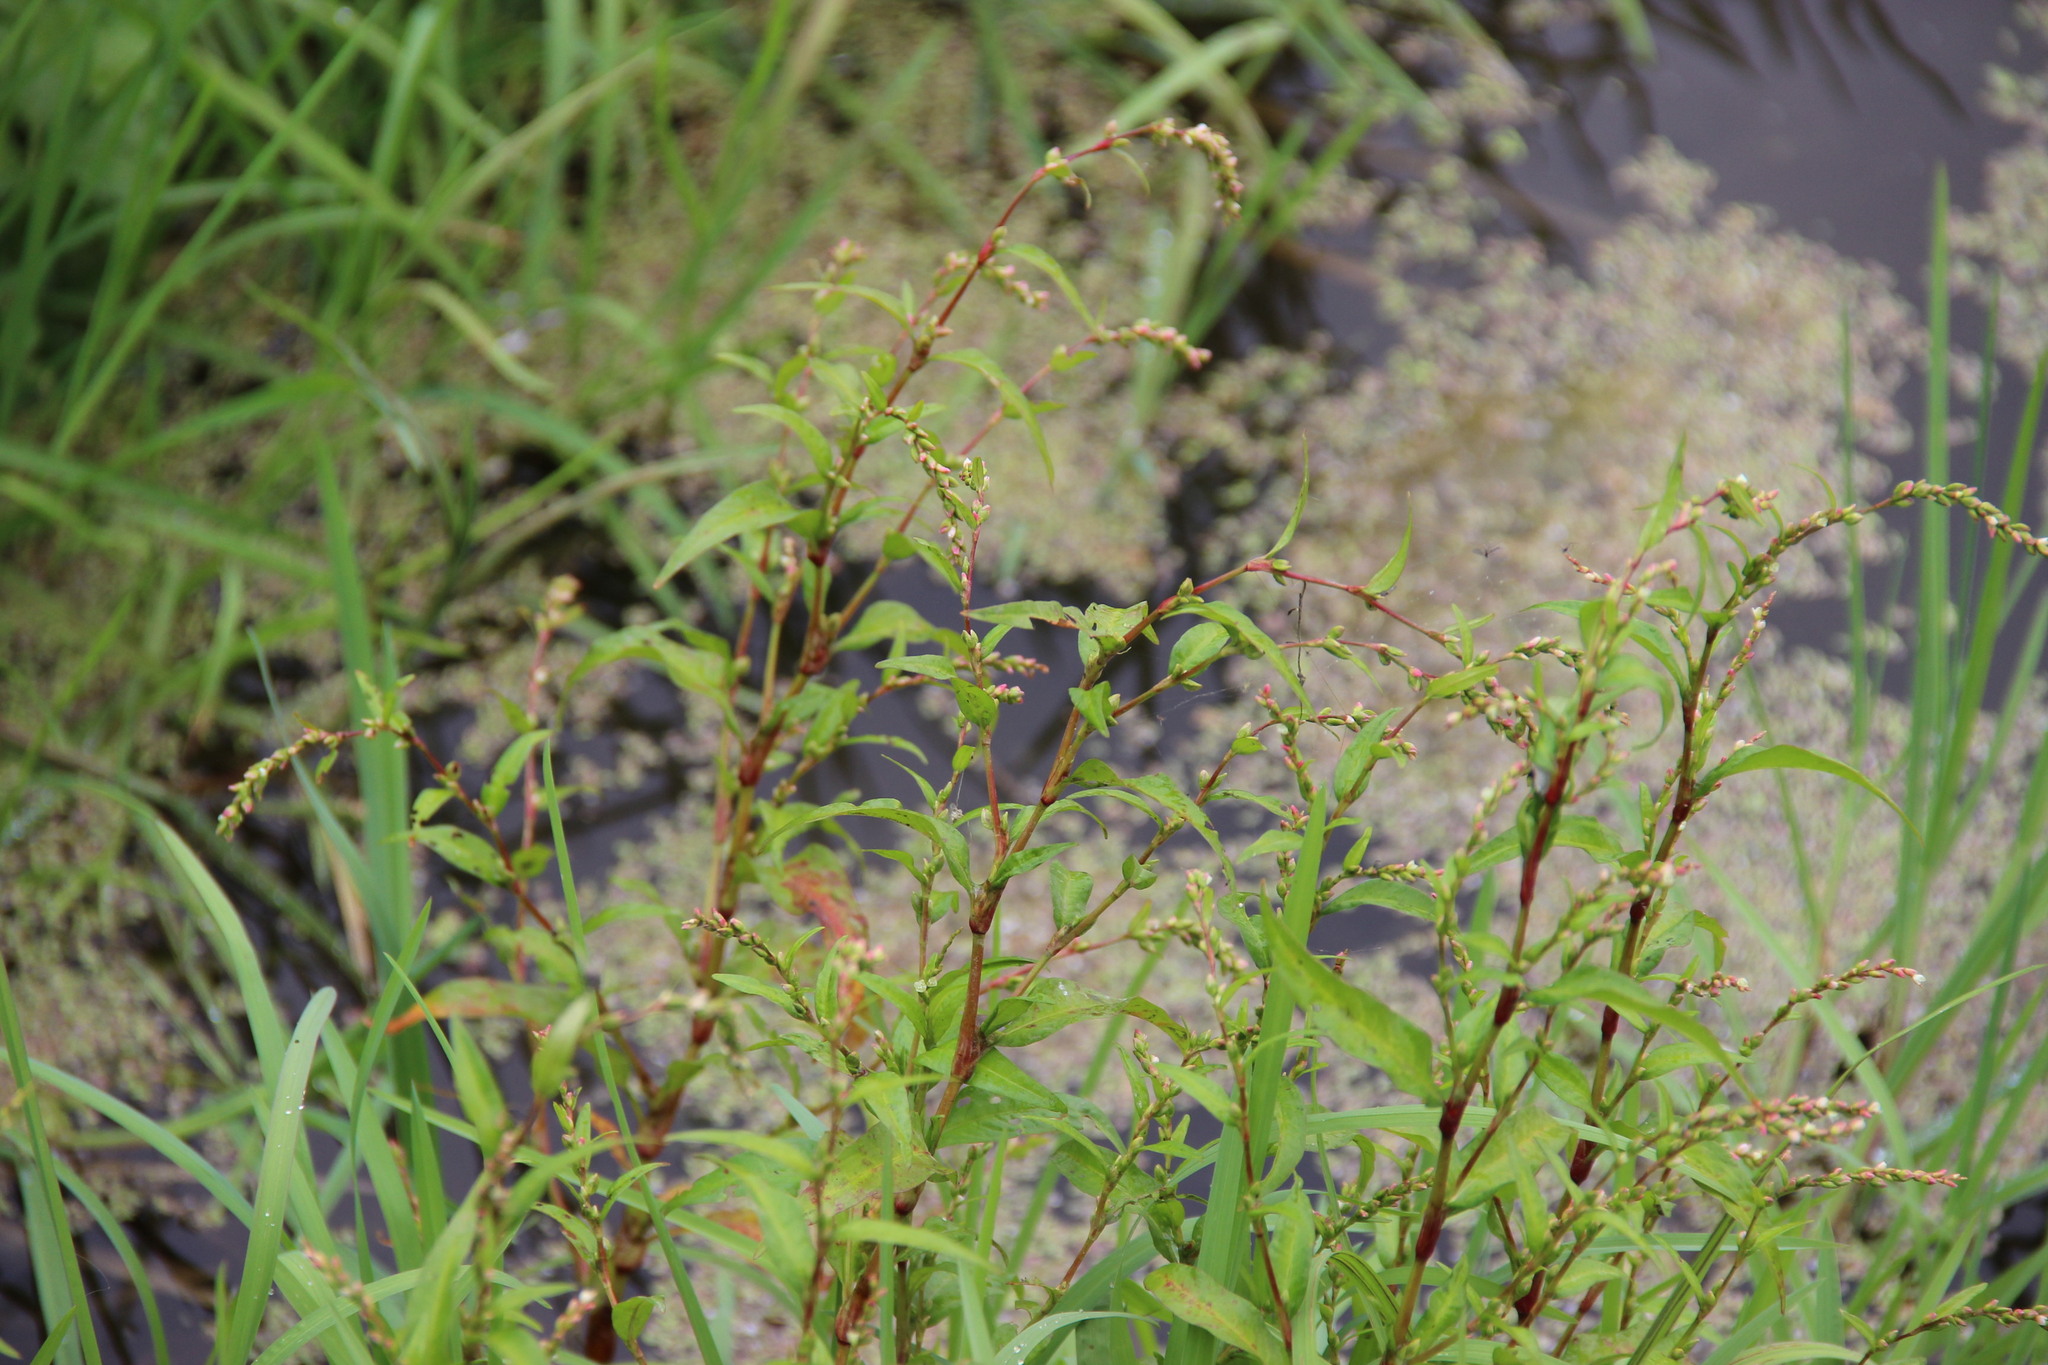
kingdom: Plantae
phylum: Tracheophyta
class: Magnoliopsida
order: Caryophyllales
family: Polygonaceae
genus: Persicaria
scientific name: Persicaria hydropiper
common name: Water-pepper
